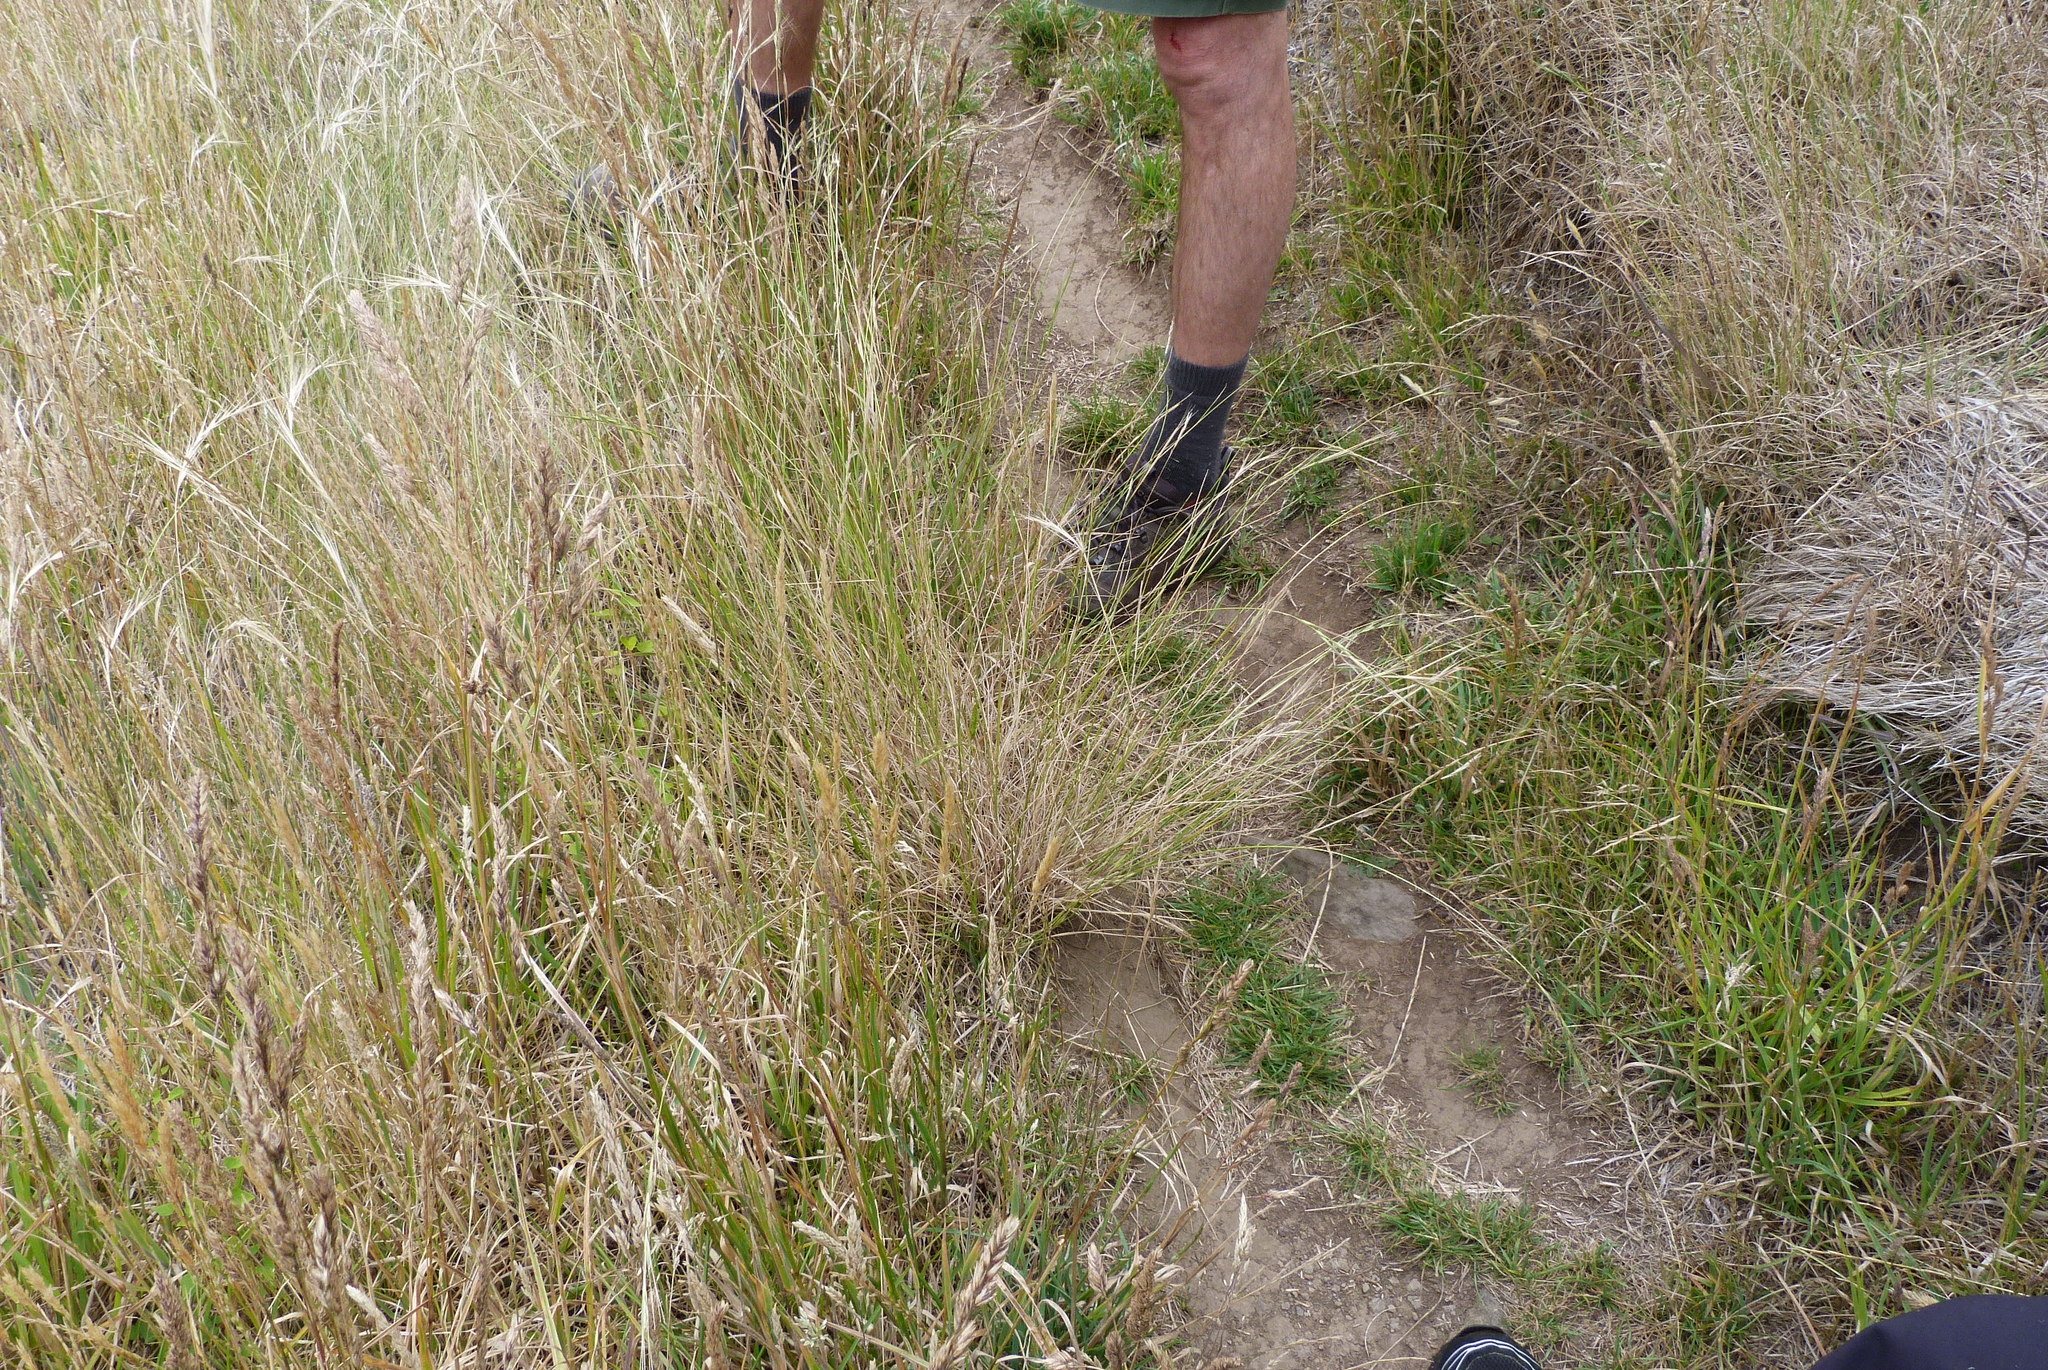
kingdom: Plantae
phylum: Tracheophyta
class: Liliopsida
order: Poales
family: Poaceae
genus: Anthosachne
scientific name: Anthosachne scabra
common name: Common wheatgrass
